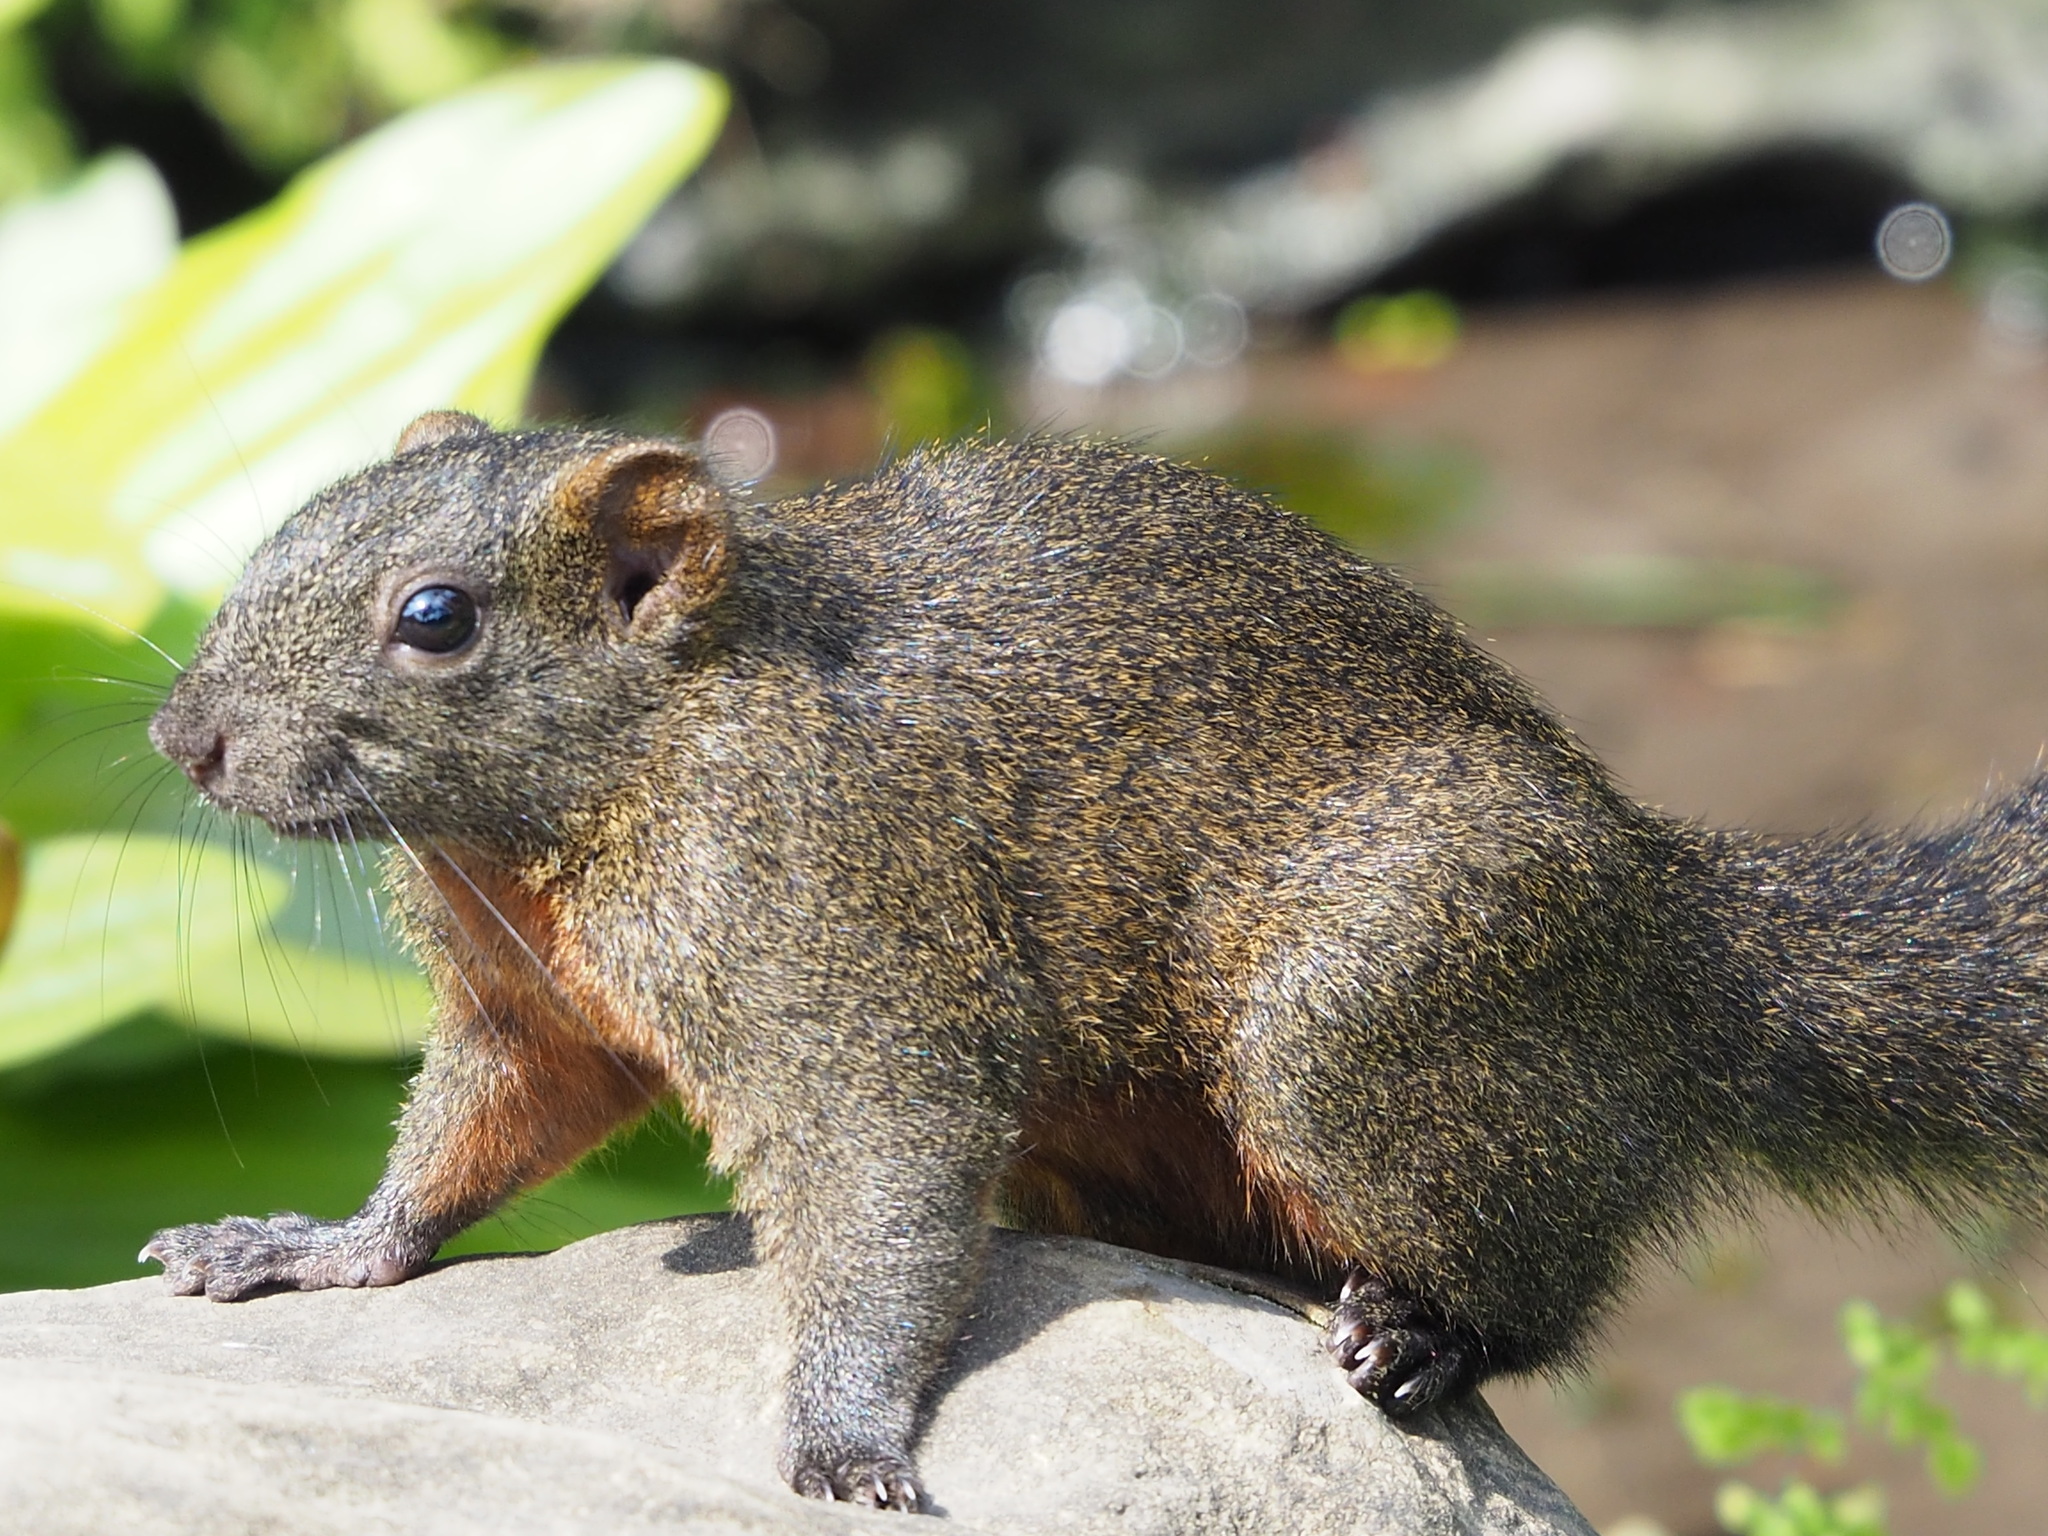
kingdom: Animalia
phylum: Chordata
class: Mammalia
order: Rodentia
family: Sciuridae
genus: Callosciurus
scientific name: Callosciurus erythraeus
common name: Pallas's squirrel
